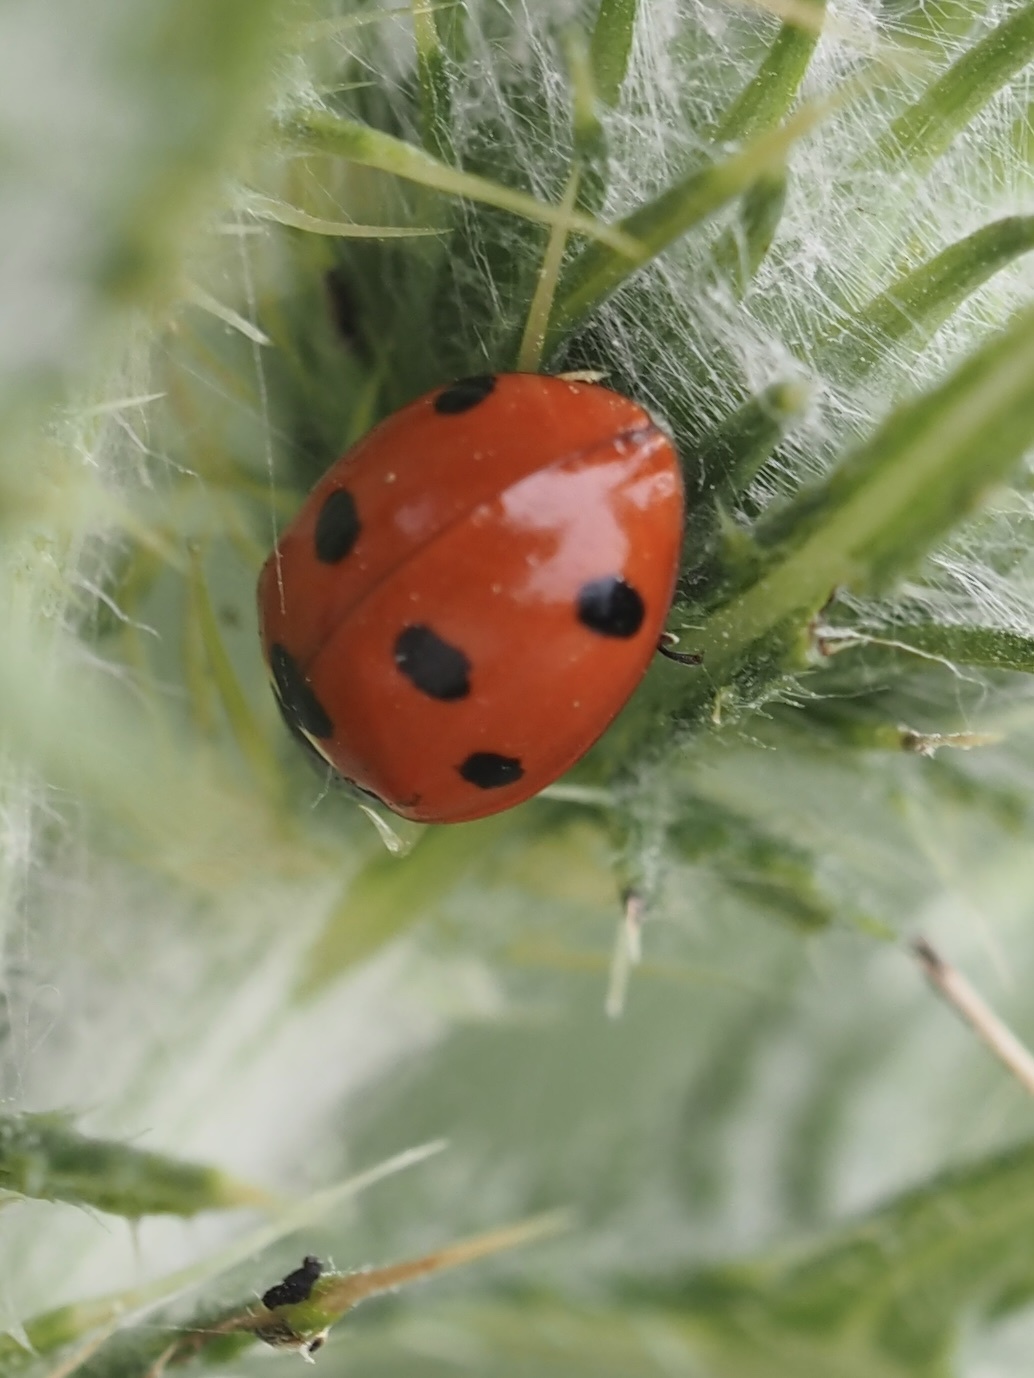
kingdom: Animalia
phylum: Arthropoda
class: Insecta
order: Coleoptera
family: Coccinellidae
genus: Coccinella
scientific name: Coccinella septempunctata
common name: Sevenspotted lady beetle
